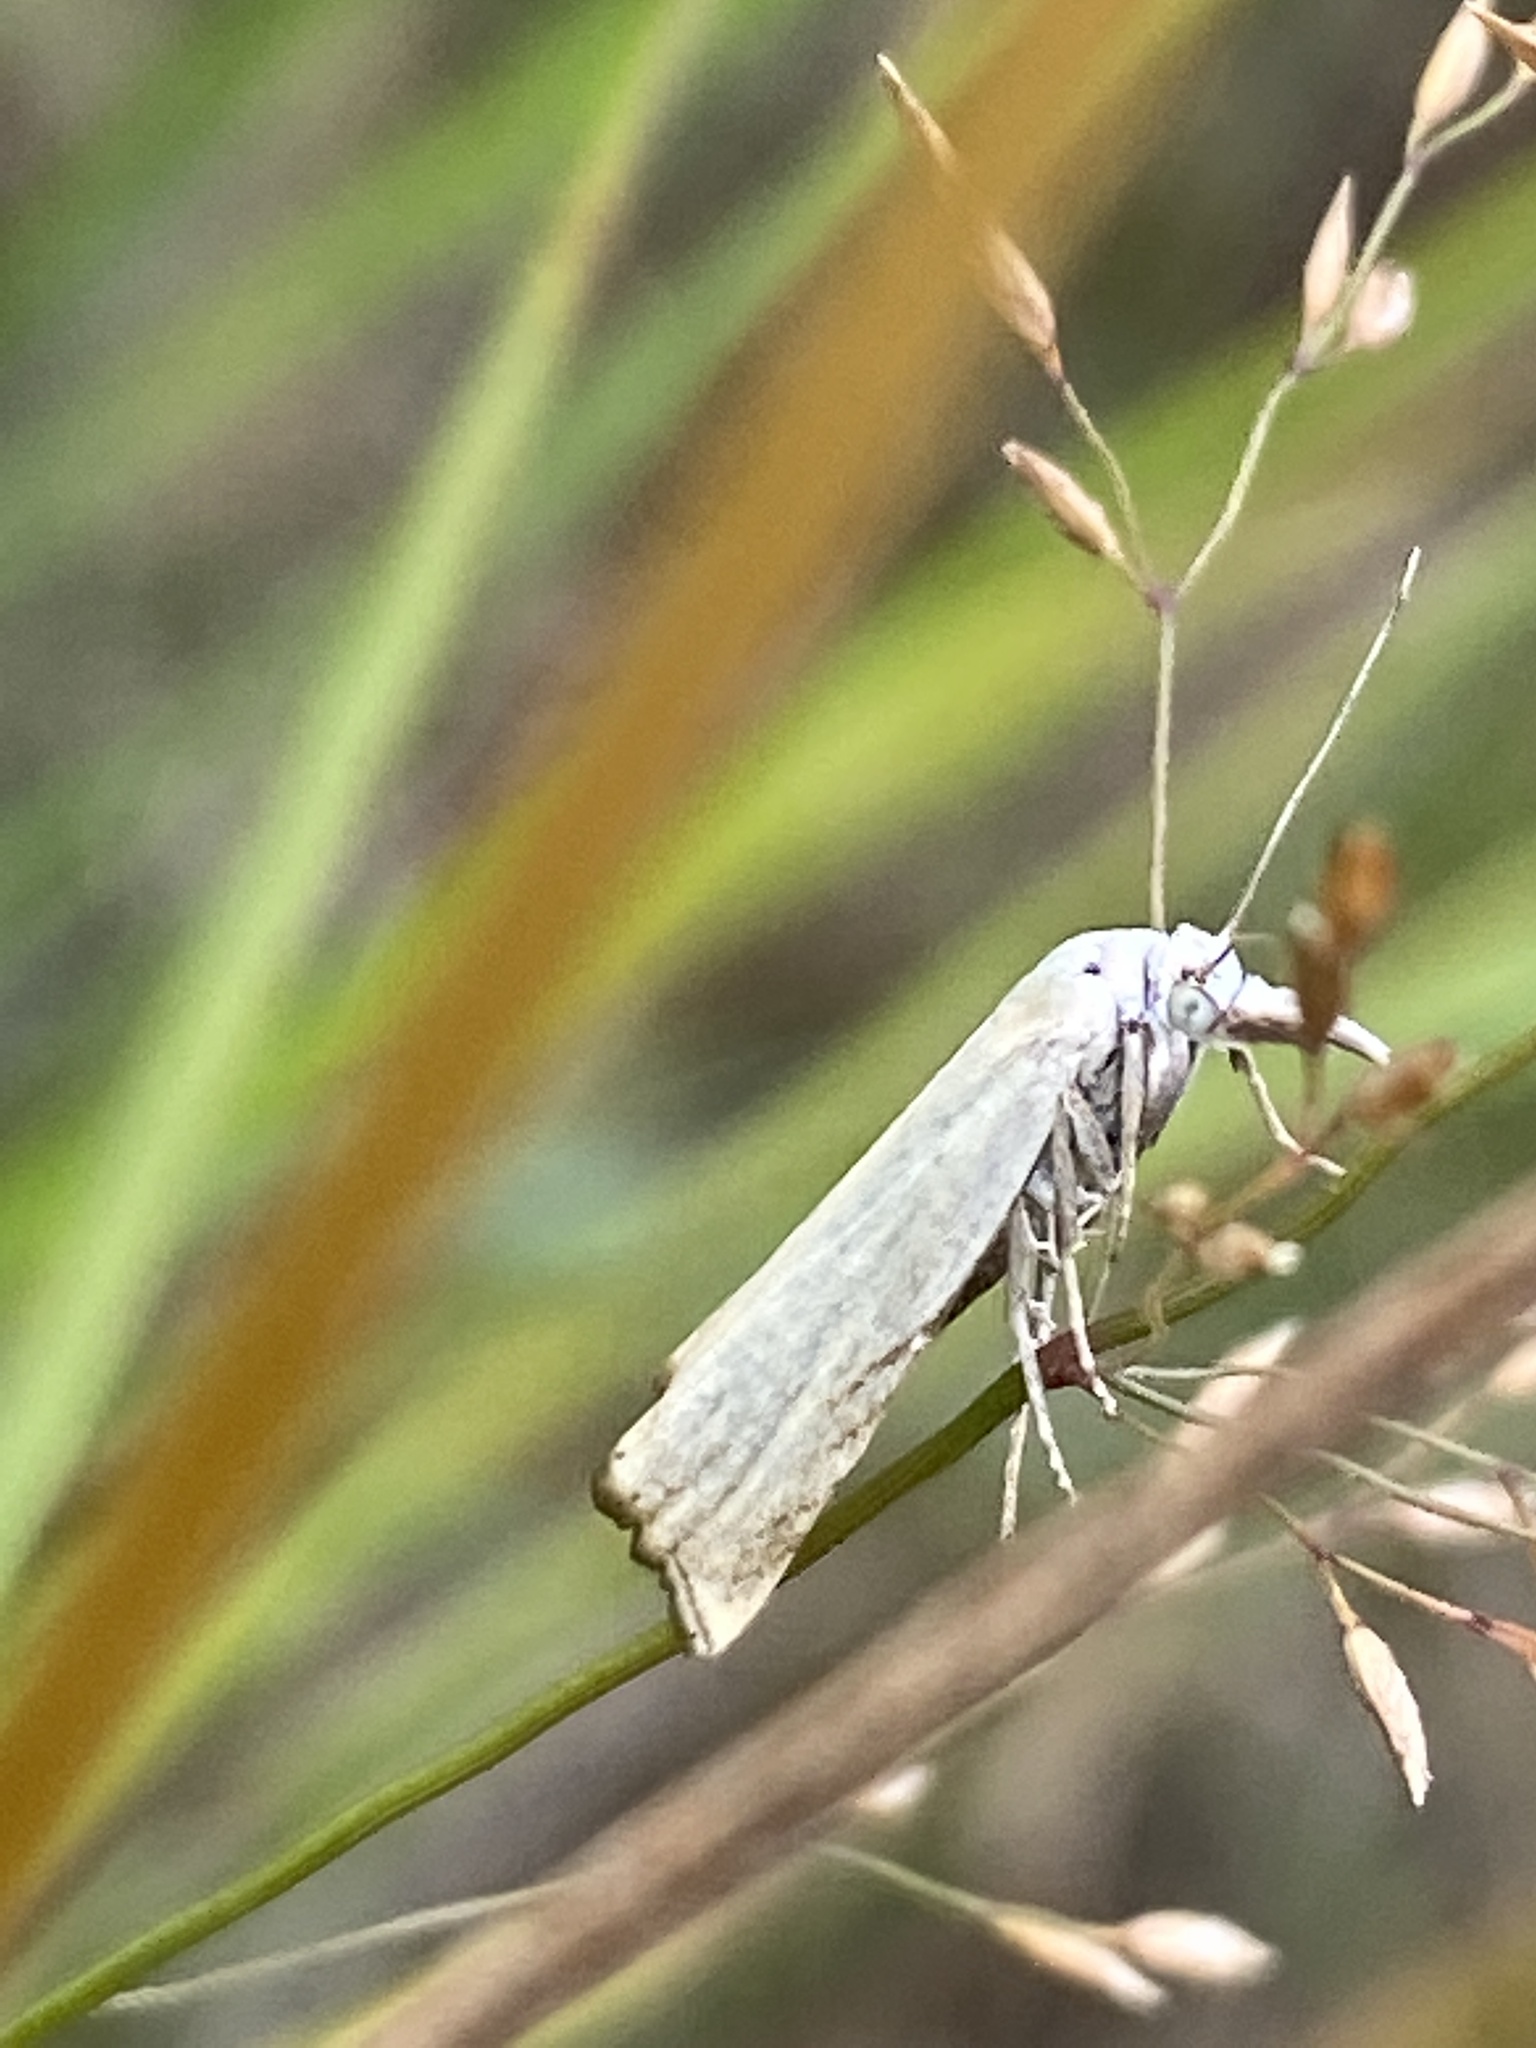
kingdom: Animalia
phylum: Arthropoda
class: Insecta
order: Lepidoptera
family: Crambidae
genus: Crambus
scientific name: Crambus nemorella
